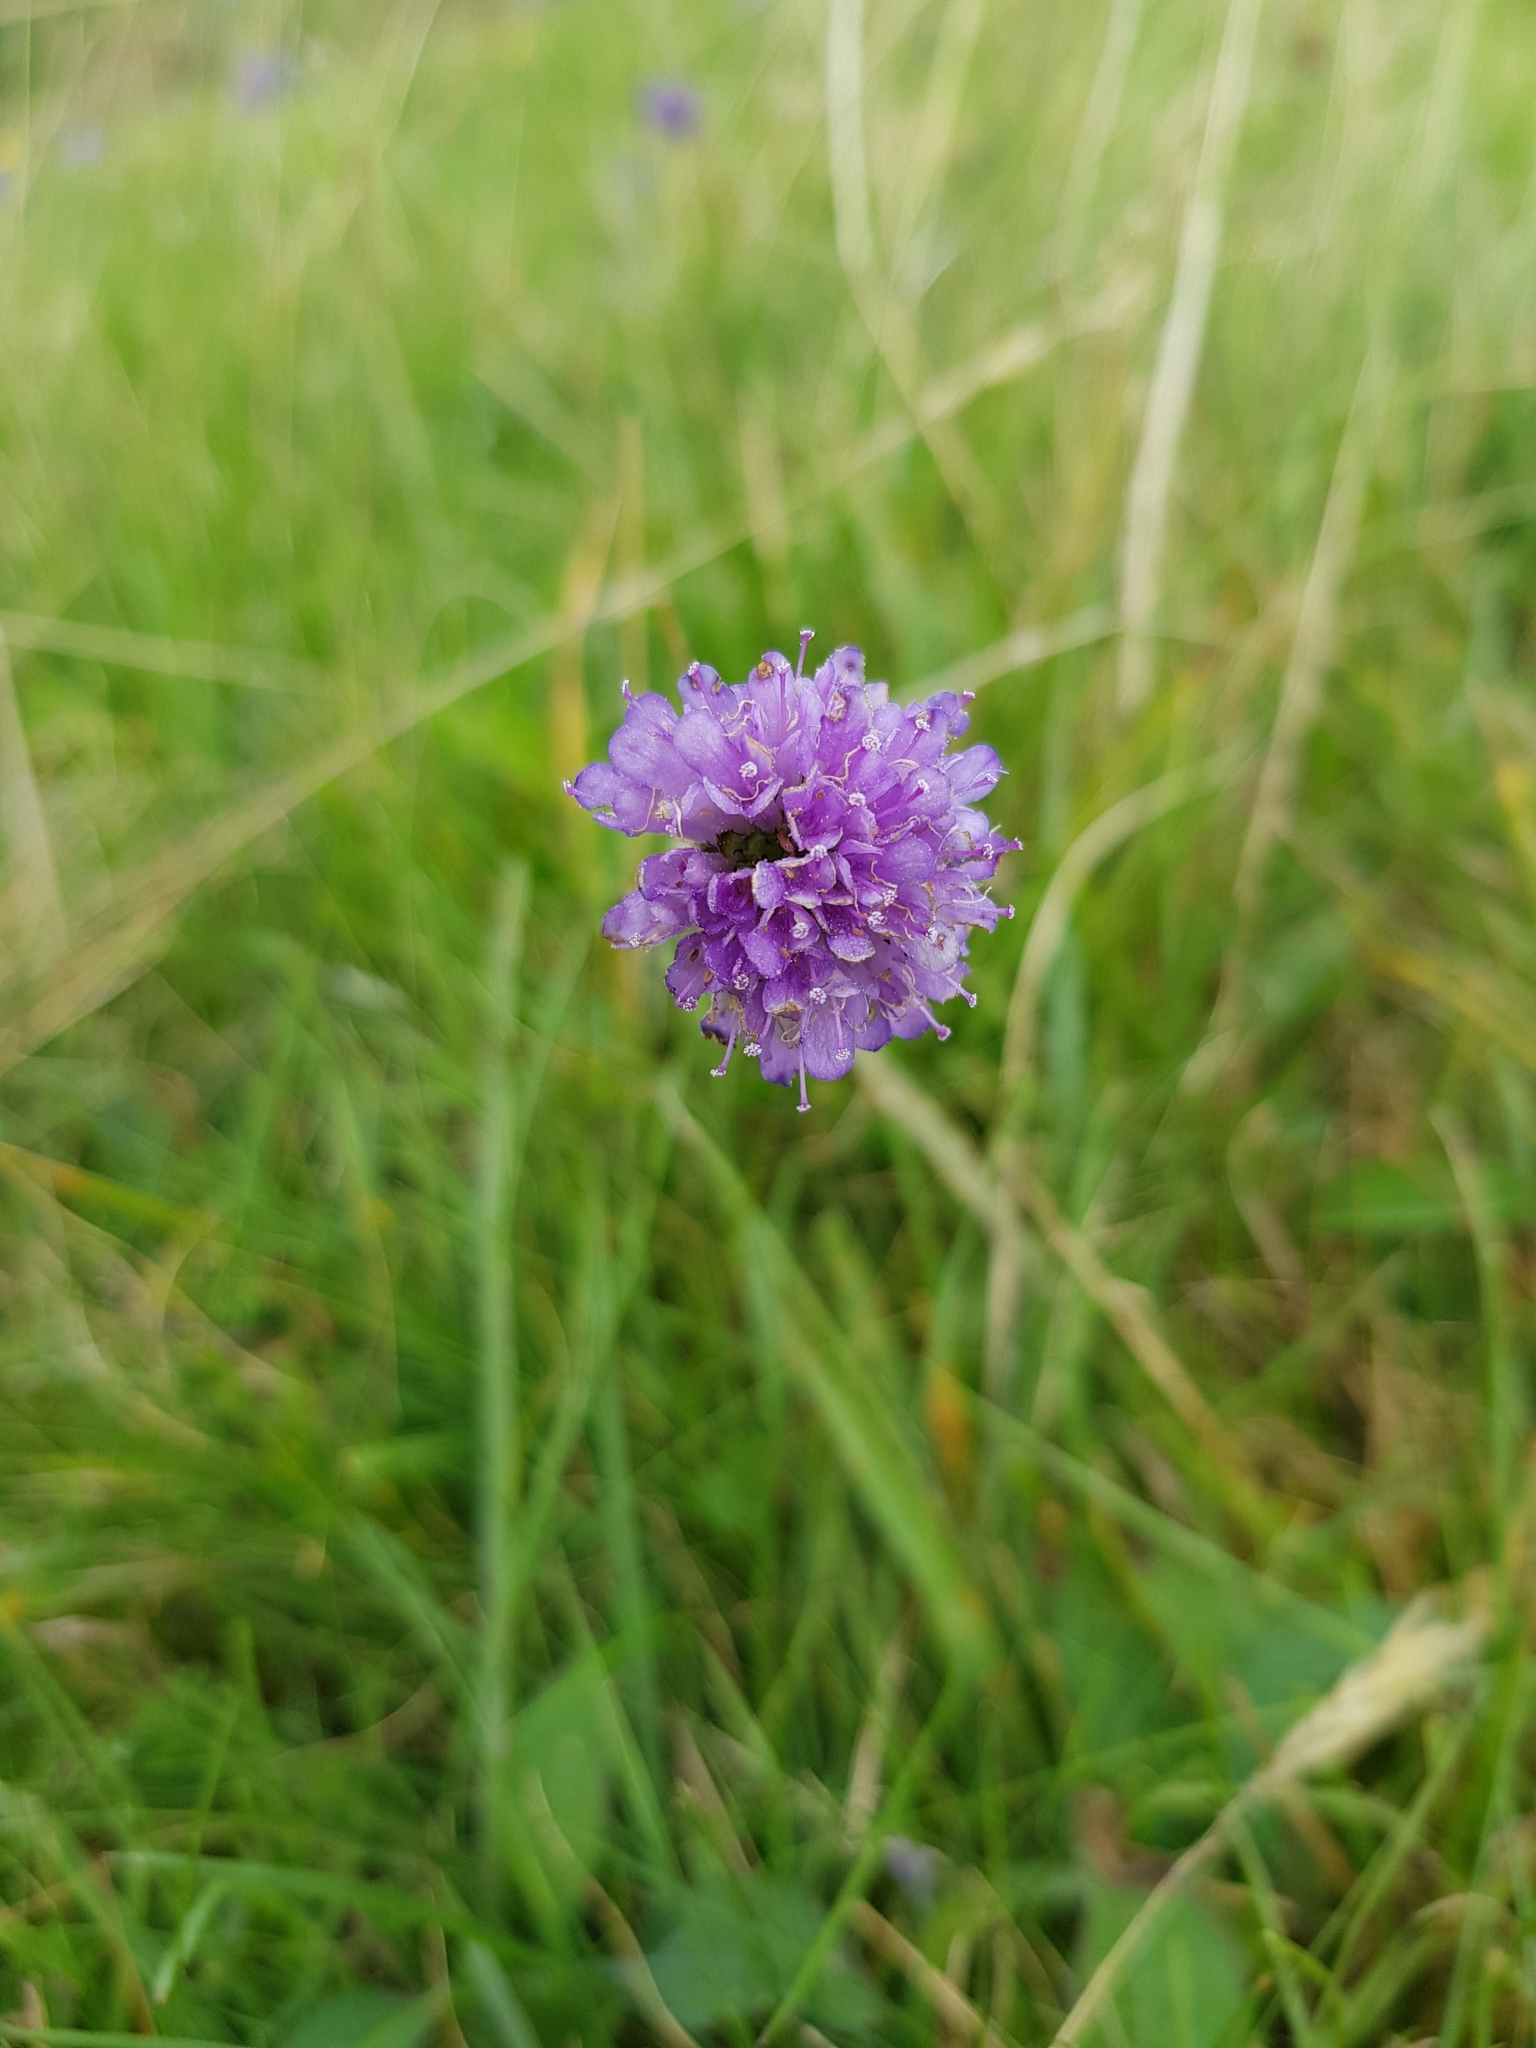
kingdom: Plantae
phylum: Tracheophyta
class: Magnoliopsida
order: Dipsacales
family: Caprifoliaceae
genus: Succisa
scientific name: Succisa pratensis
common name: Devil's-bit
